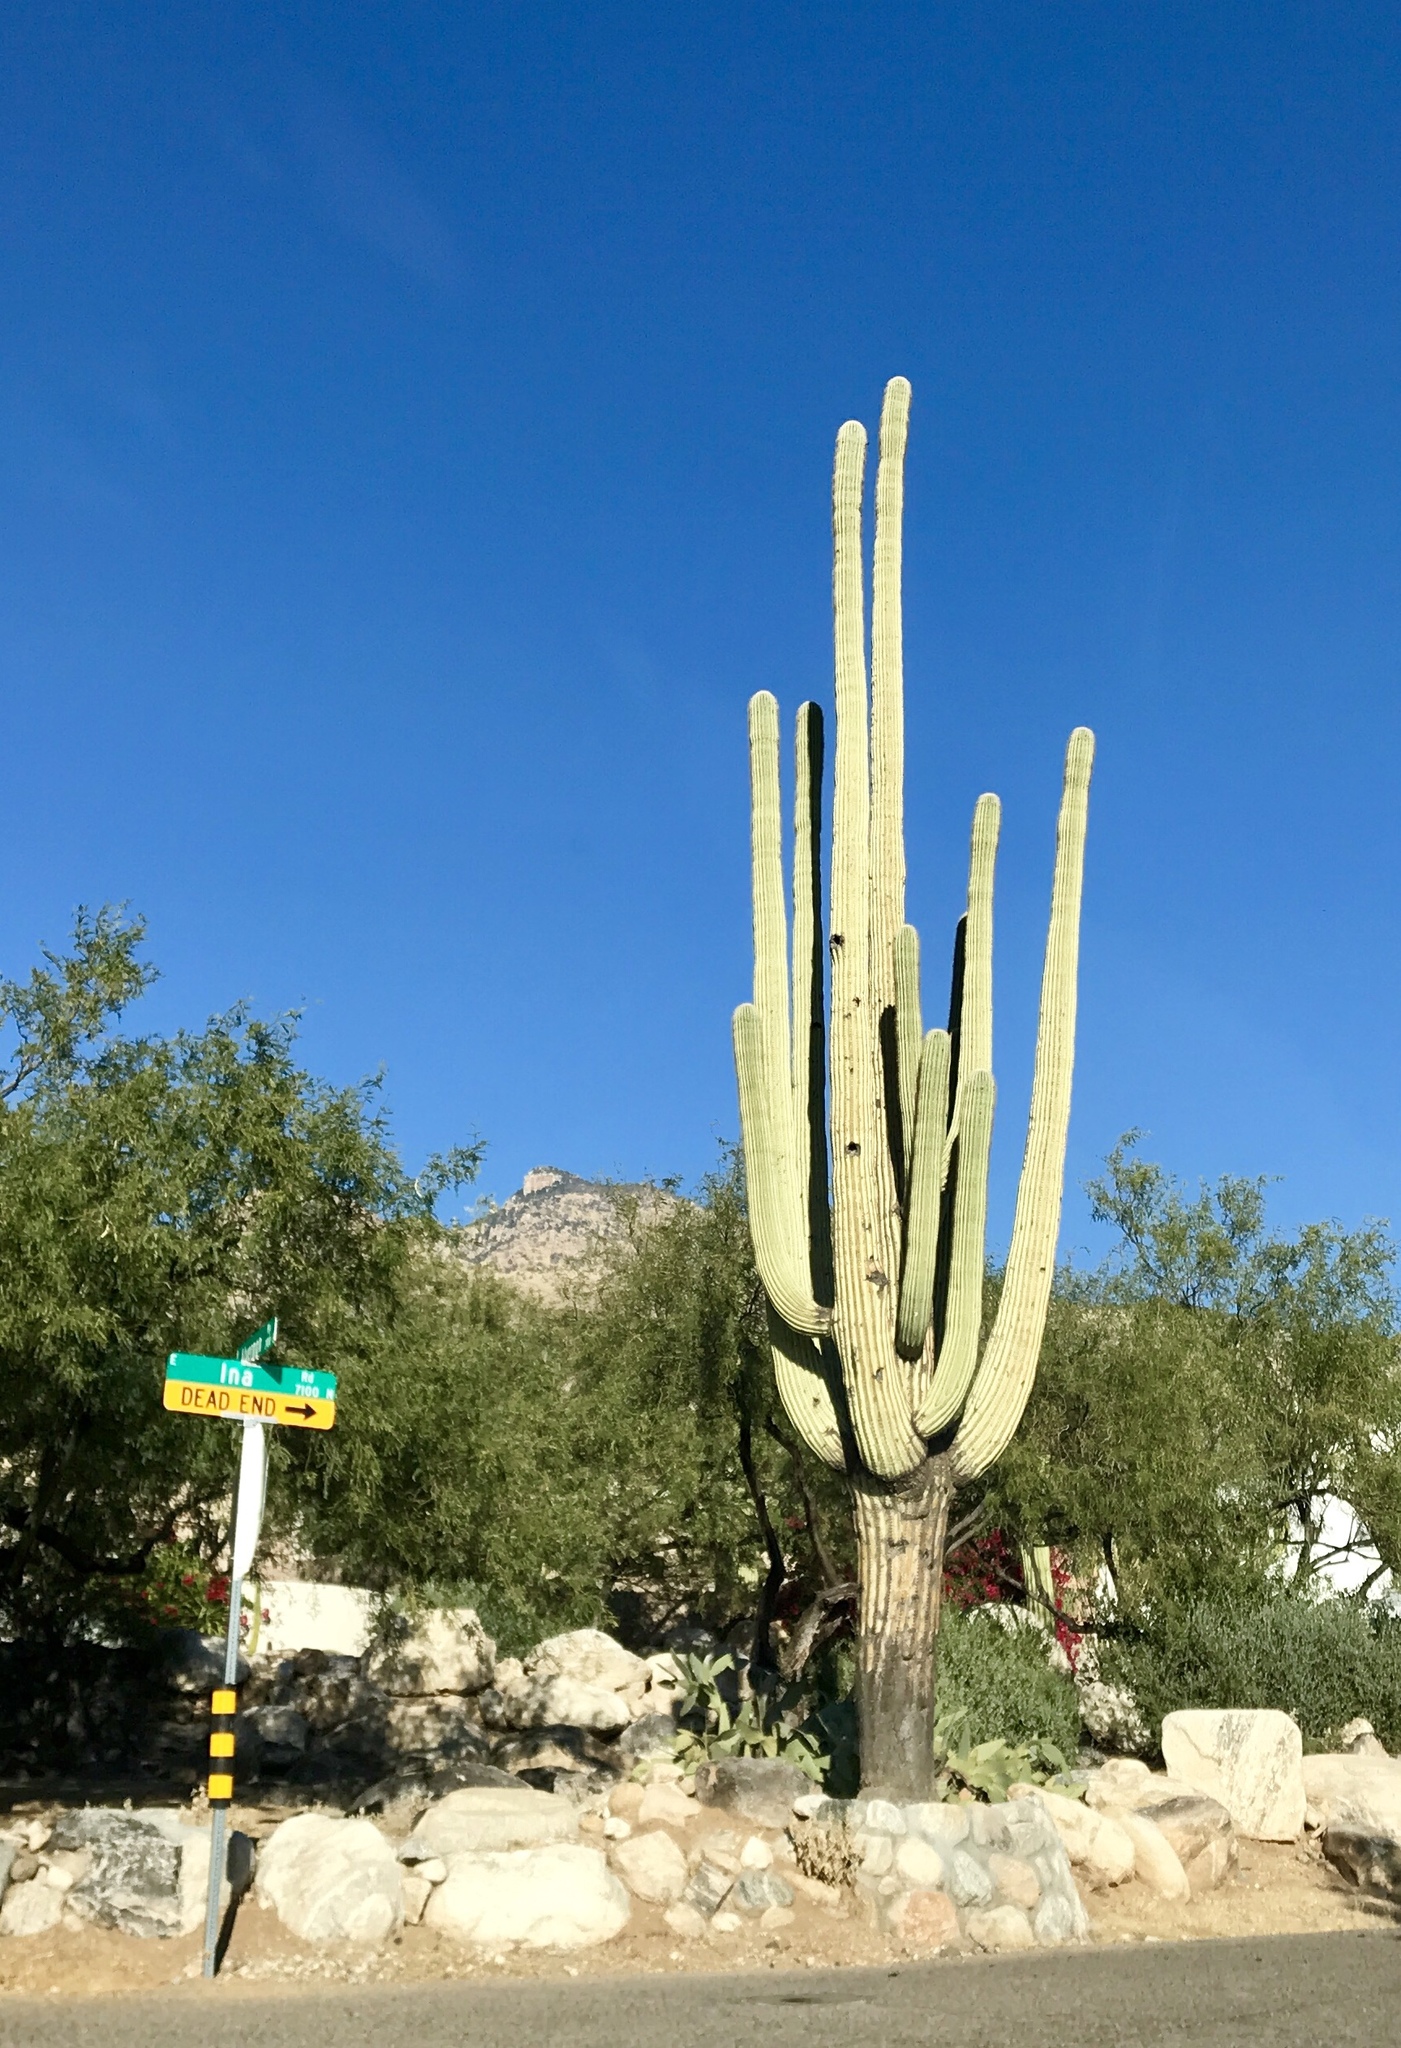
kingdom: Plantae
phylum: Tracheophyta
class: Magnoliopsida
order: Caryophyllales
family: Cactaceae
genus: Carnegiea
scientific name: Carnegiea gigantea
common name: Saguaro
